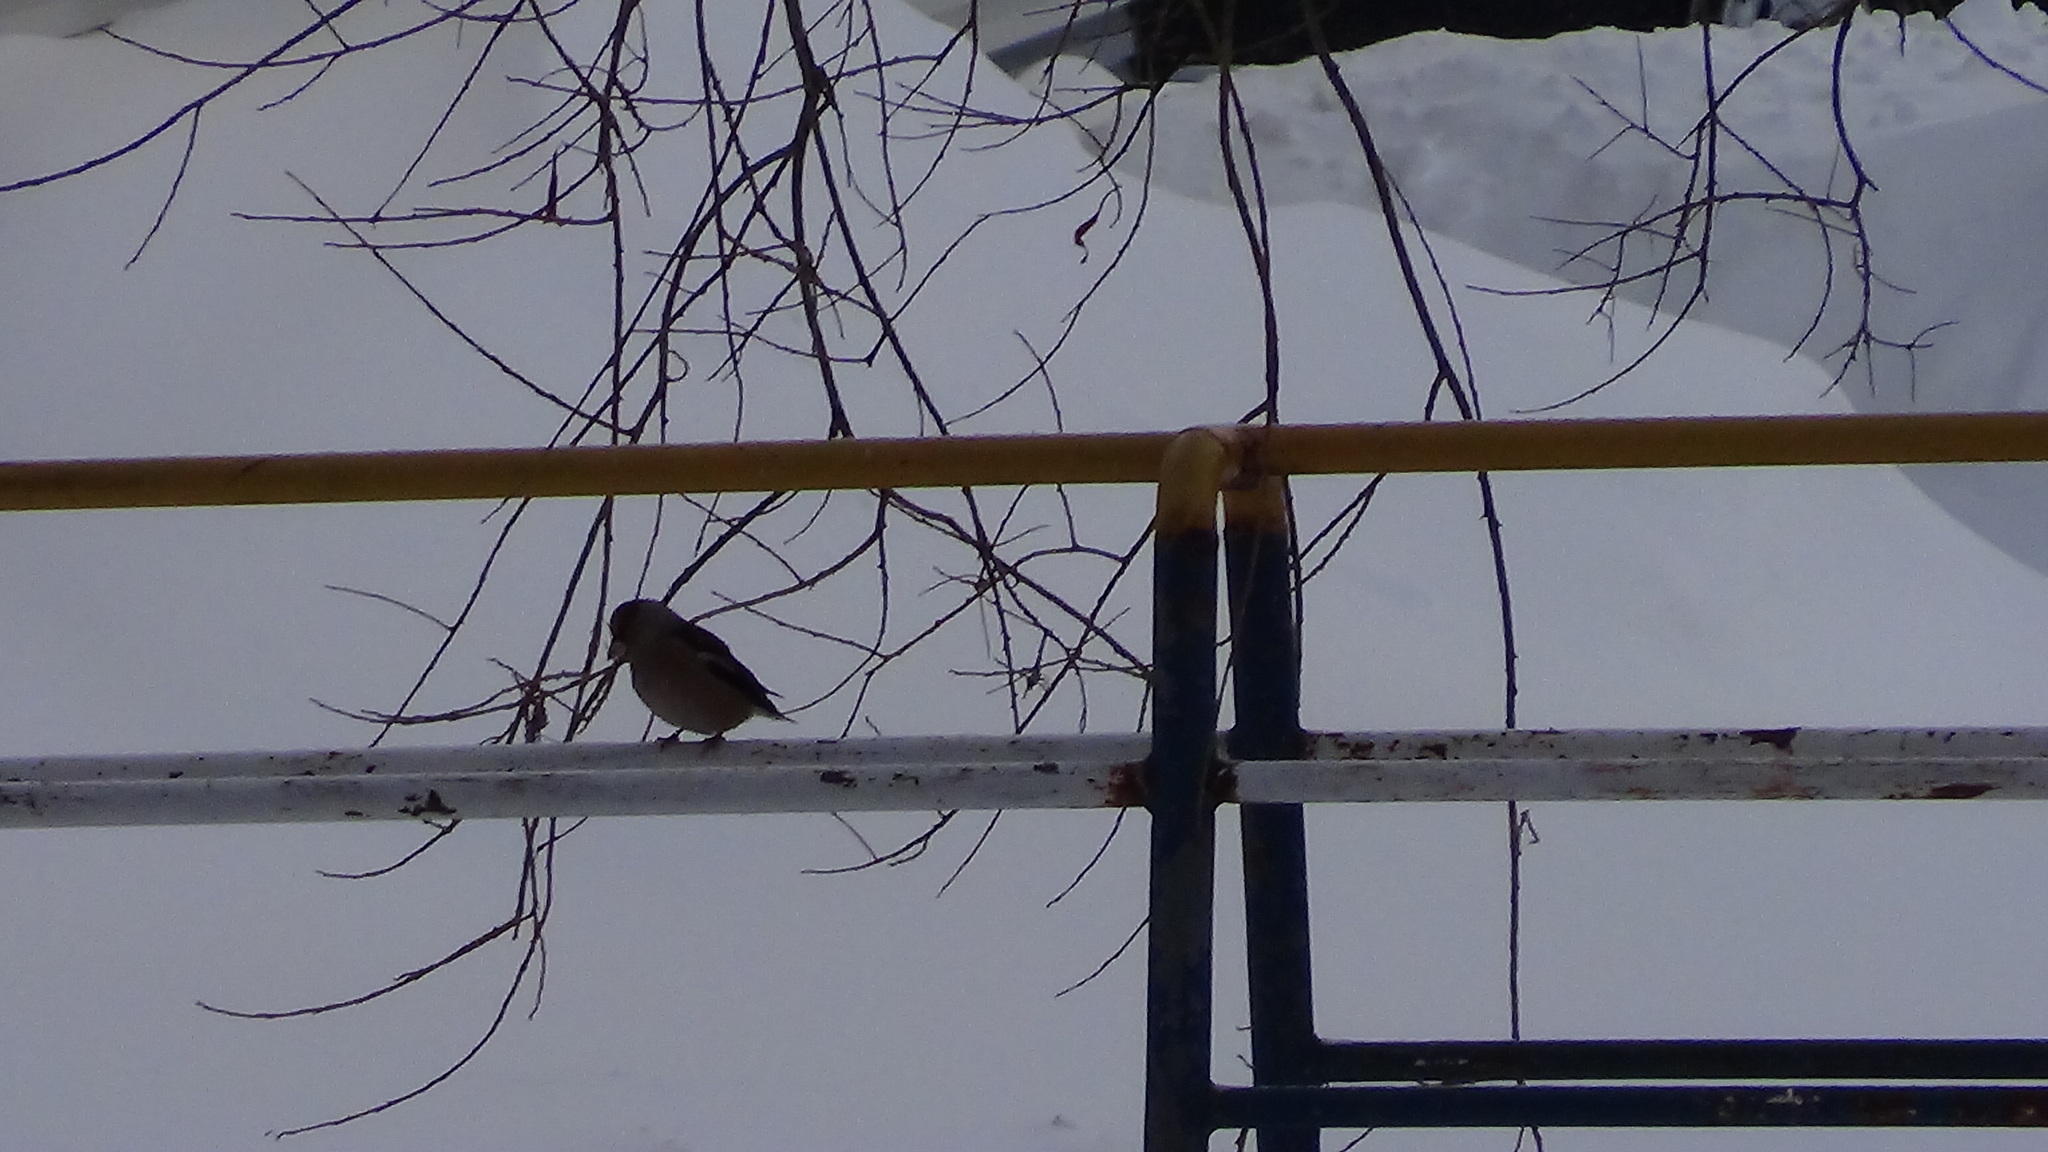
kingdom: Animalia
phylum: Chordata
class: Aves
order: Passeriformes
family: Fringillidae
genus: Coccothraustes
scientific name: Coccothraustes coccothraustes
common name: Hawfinch
